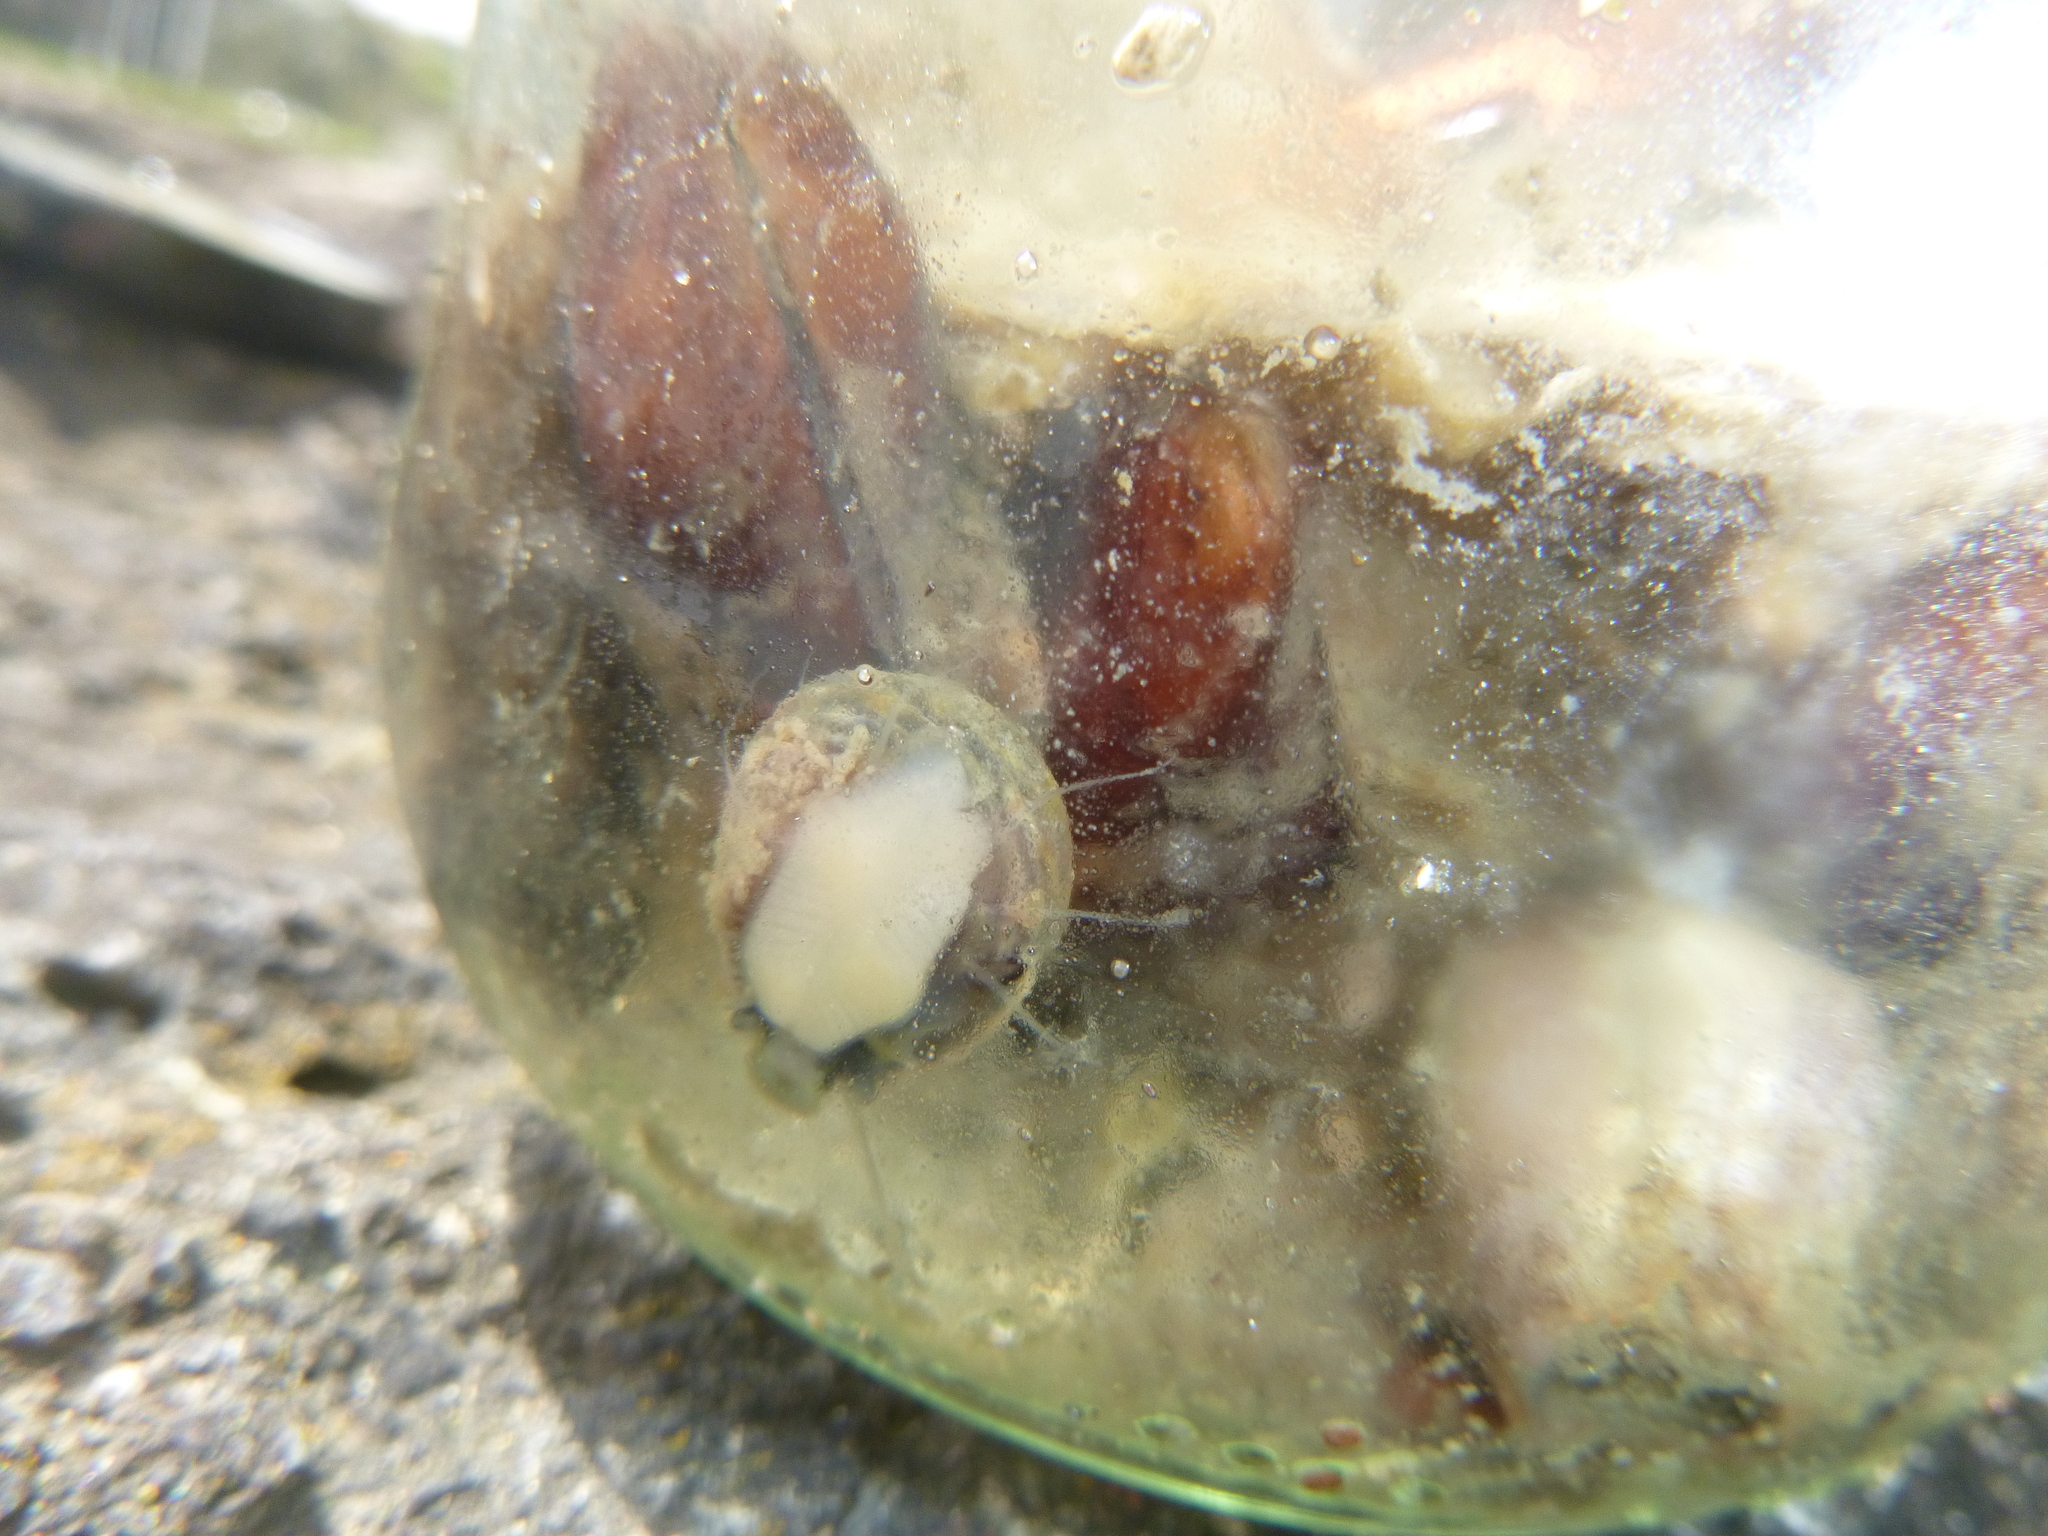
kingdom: Animalia
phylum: Mollusca
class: Gastropoda
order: Trochida
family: Trochidae
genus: Diloma
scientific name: Diloma subrostratum
